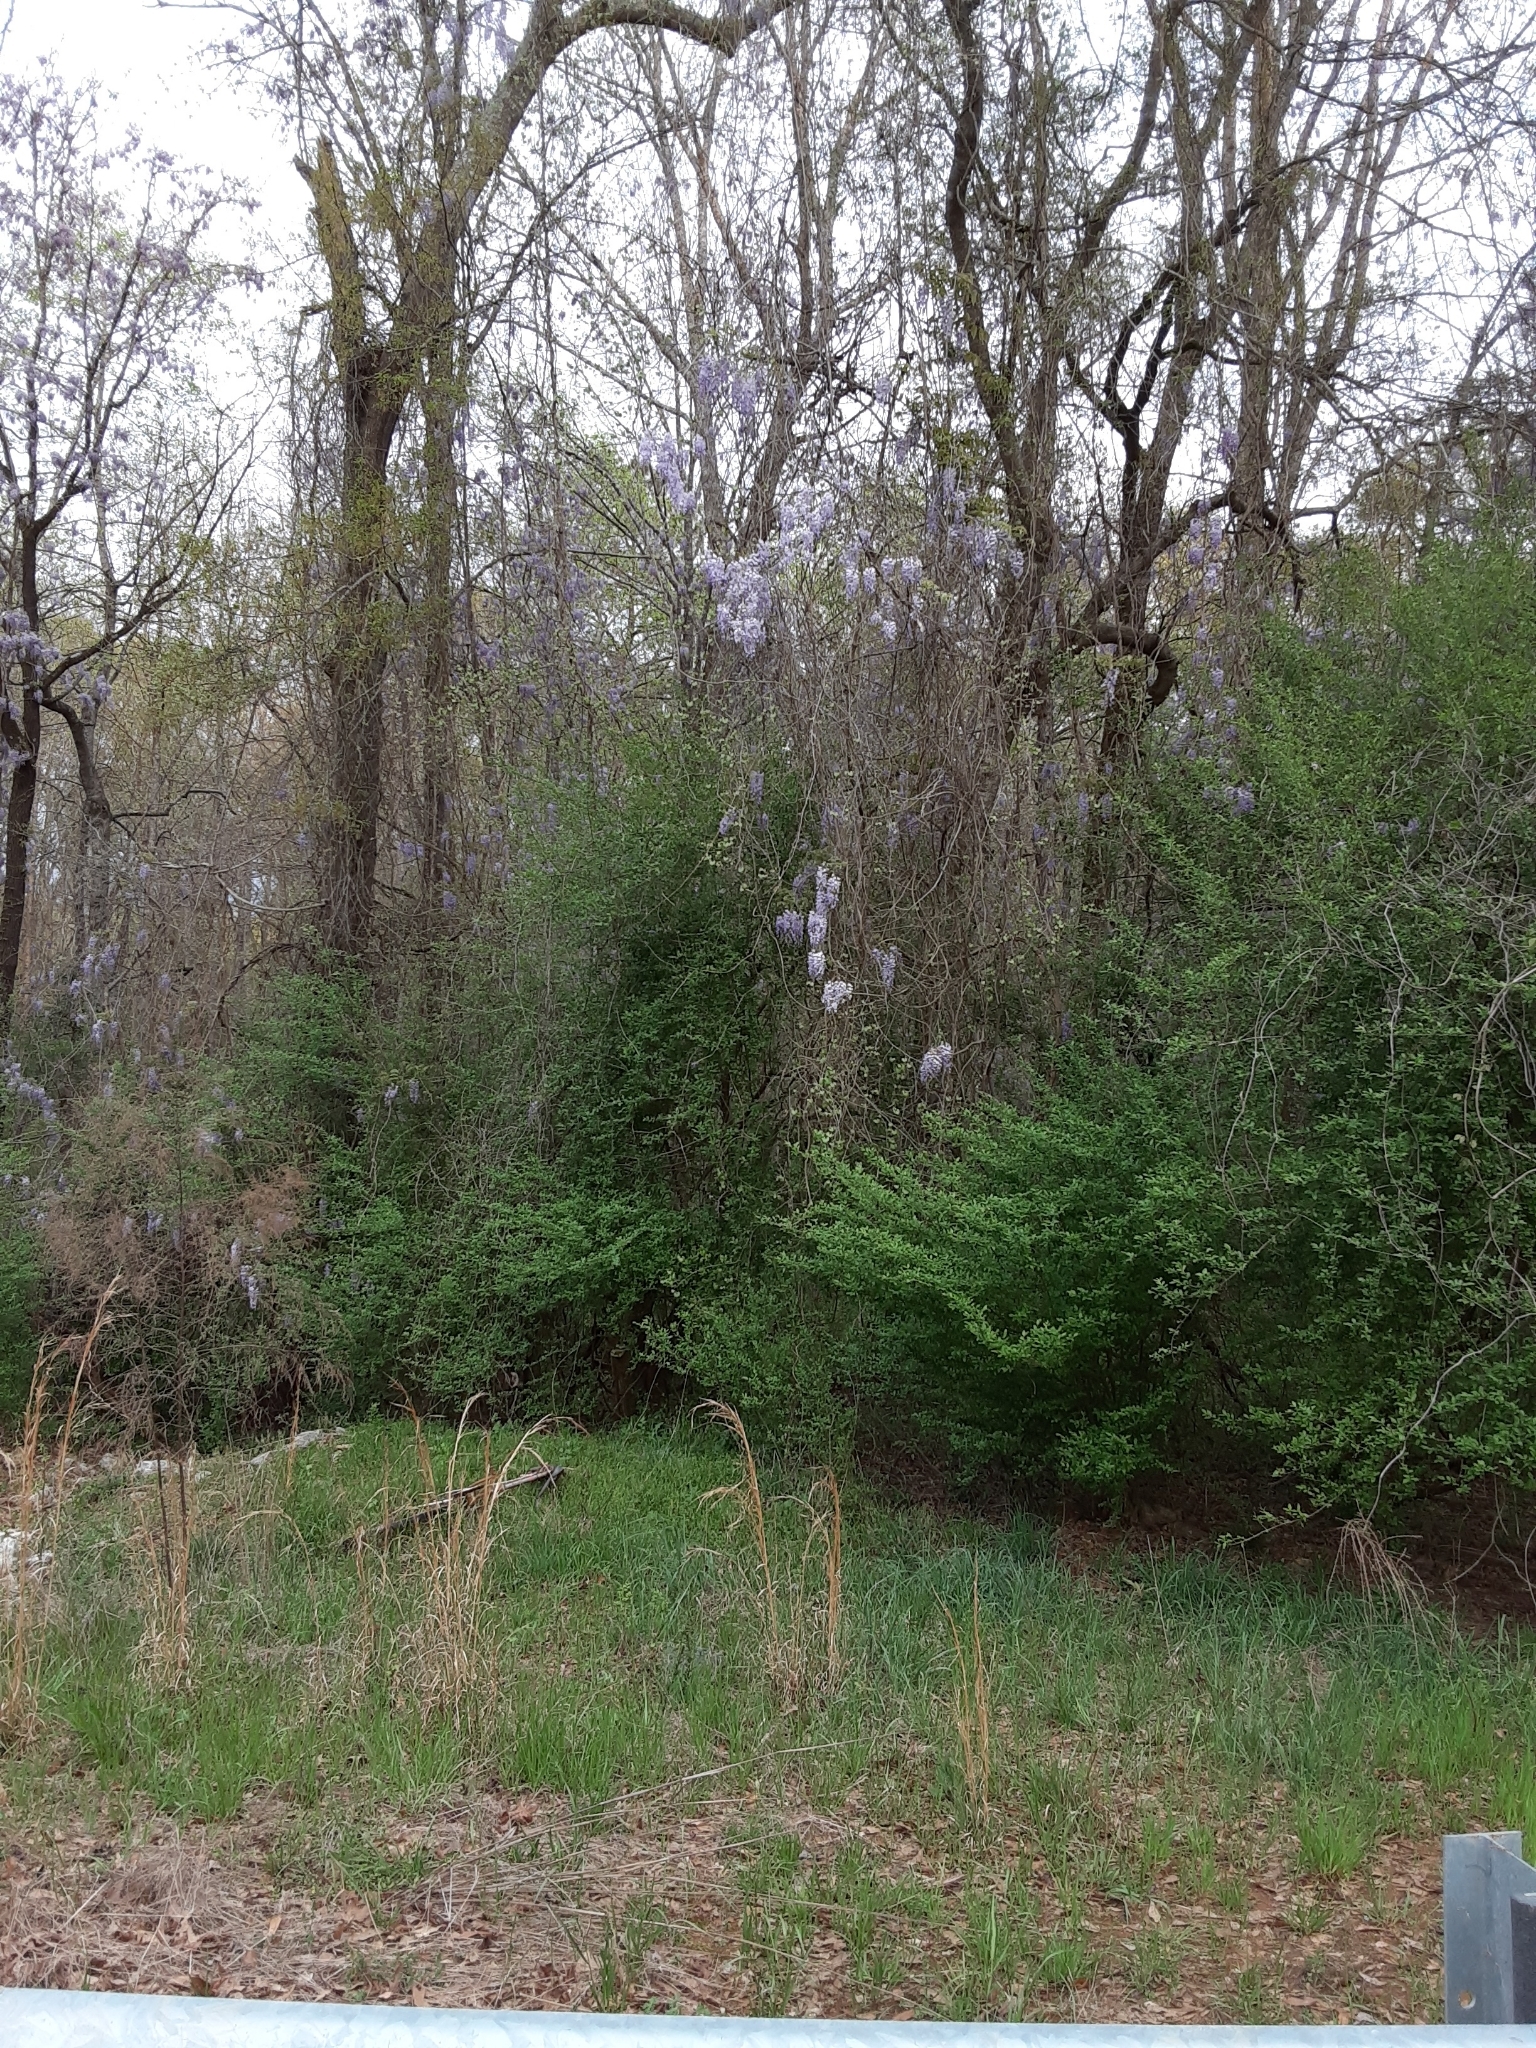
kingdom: Plantae
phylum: Tracheophyta
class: Magnoliopsida
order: Fabales
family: Fabaceae
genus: Wisteria
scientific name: Wisteria sinensis
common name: Chinese wisteria
